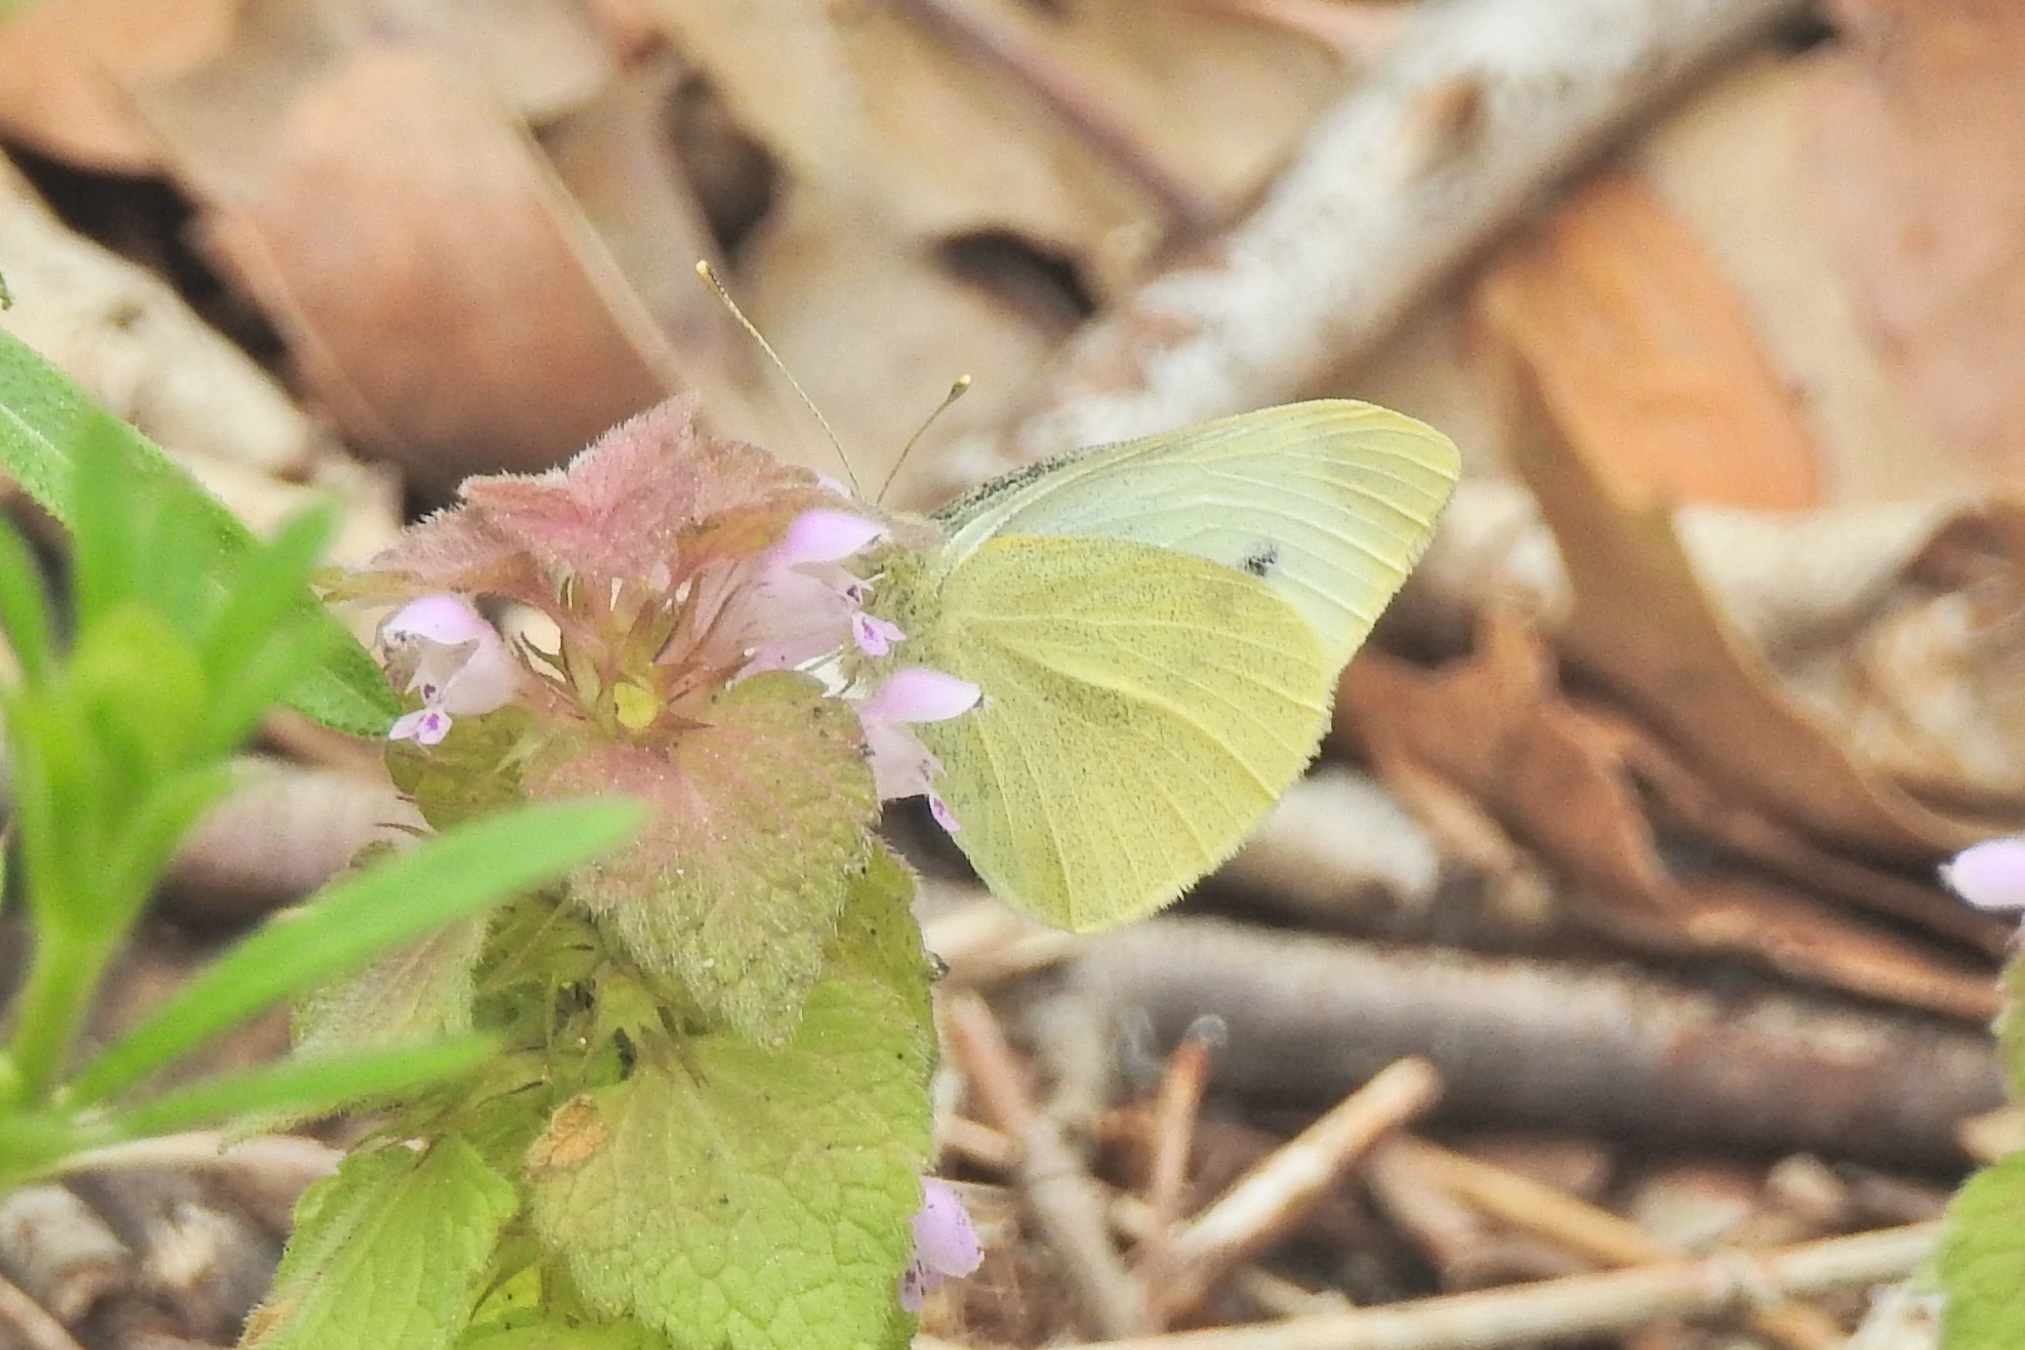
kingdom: Animalia
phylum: Arthropoda
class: Insecta
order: Lepidoptera
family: Pieridae
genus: Pieris
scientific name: Pieris rapae
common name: Small white
